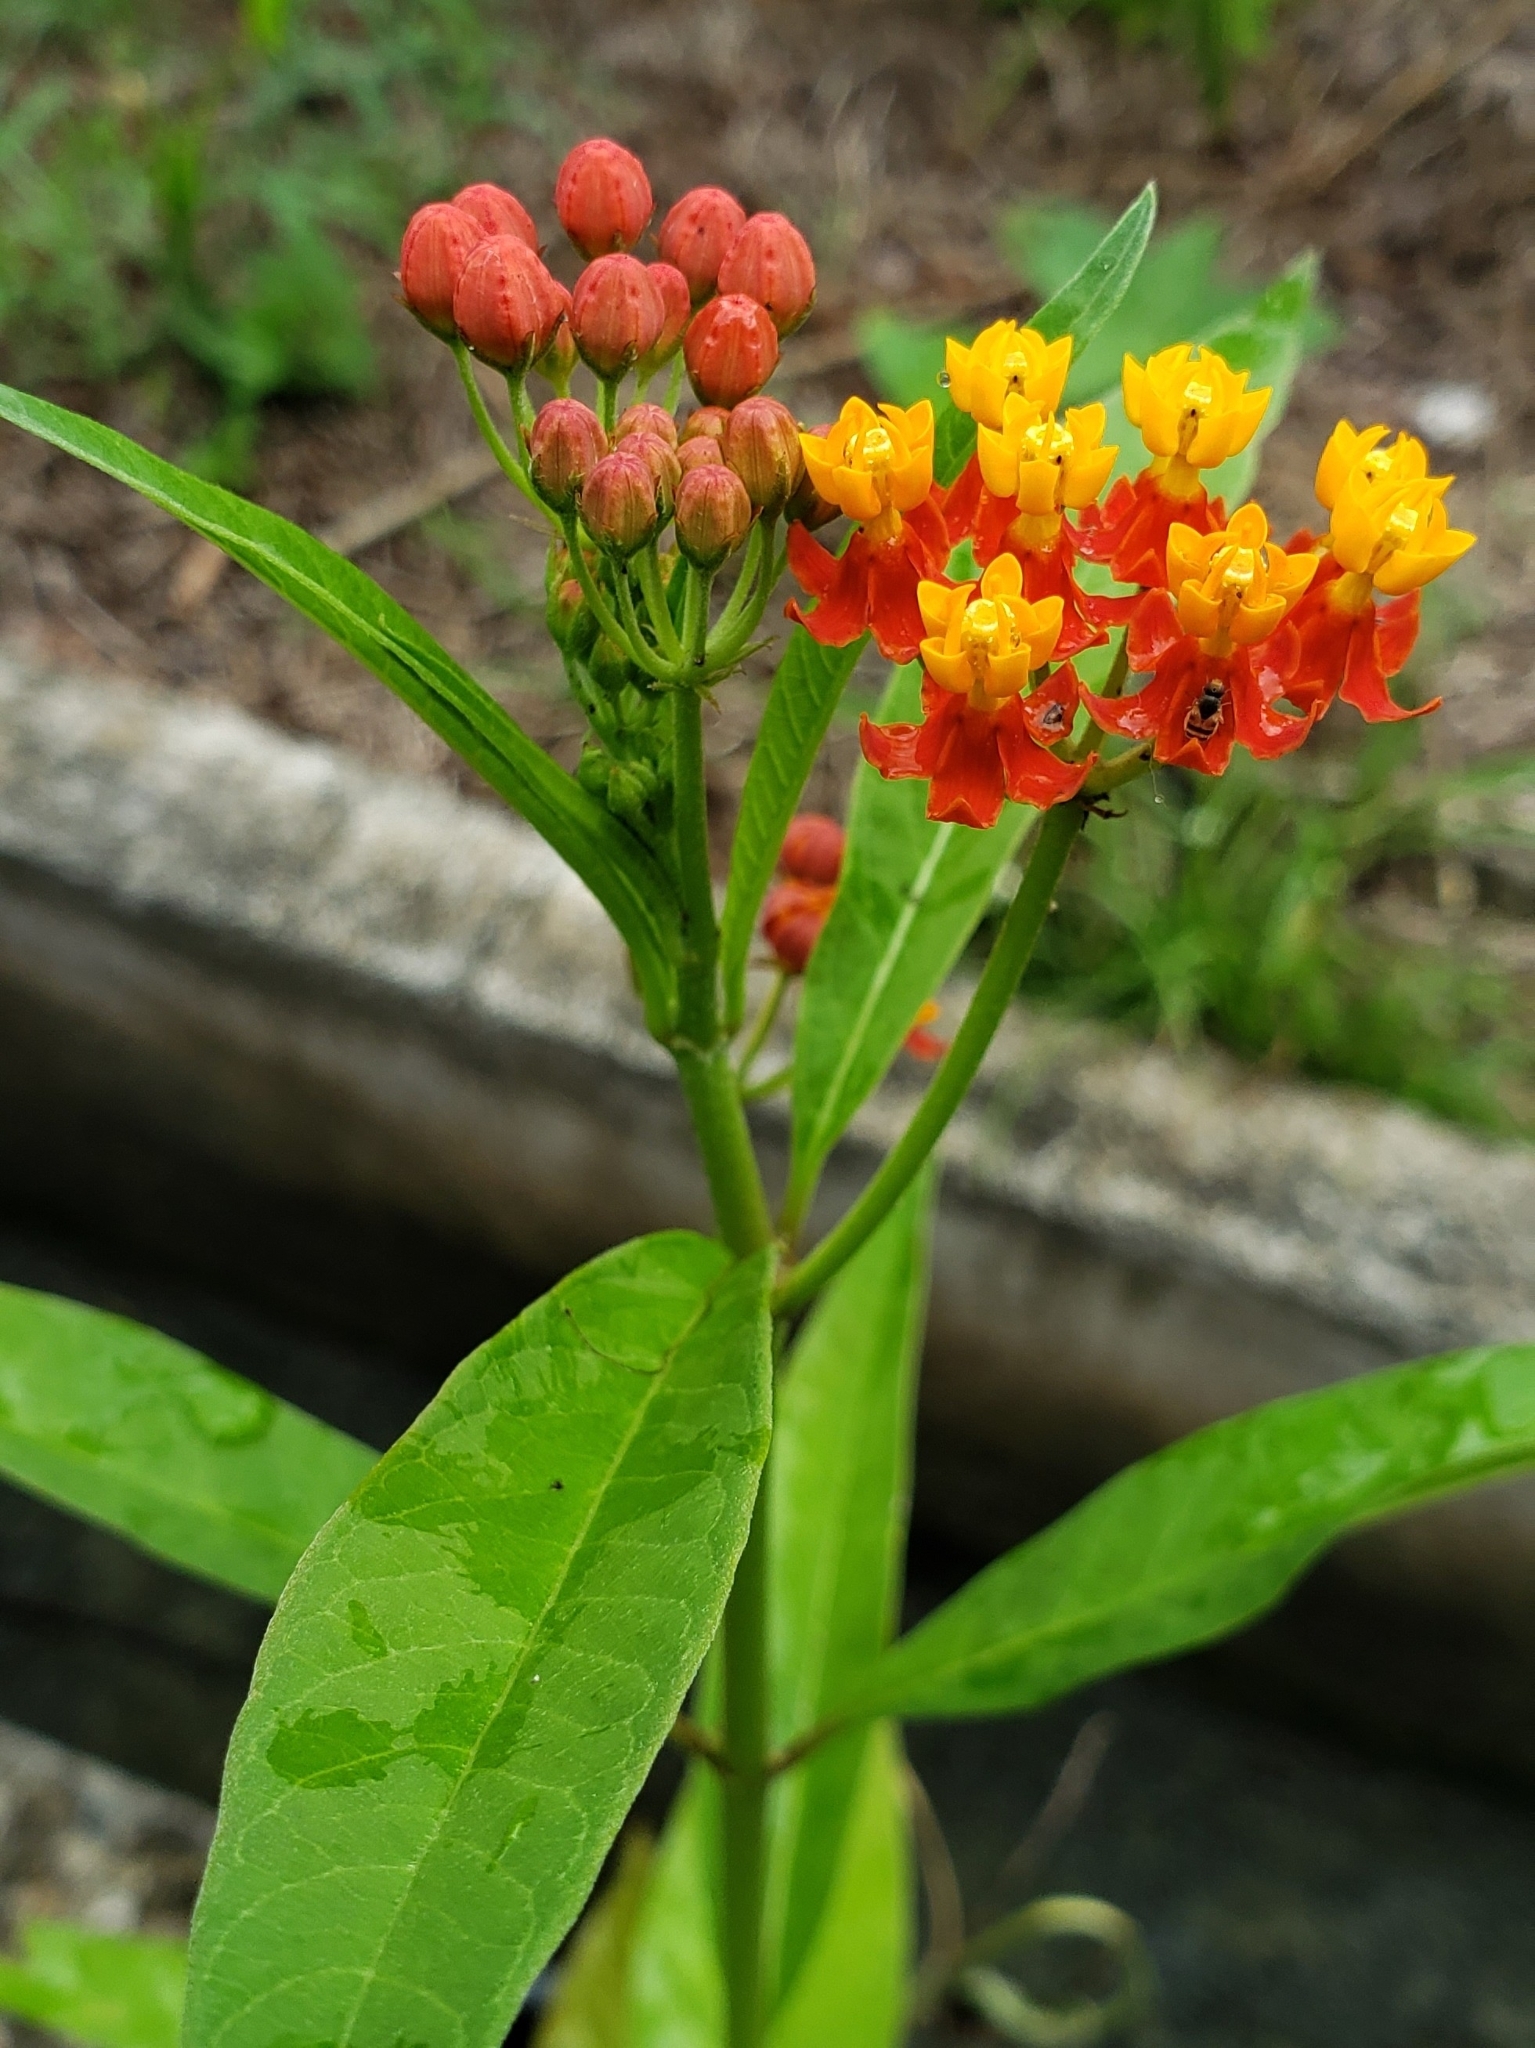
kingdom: Plantae
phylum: Tracheophyta
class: Magnoliopsida
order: Gentianales
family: Apocynaceae
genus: Asclepias
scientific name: Asclepias curassavica
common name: Bloodflower
